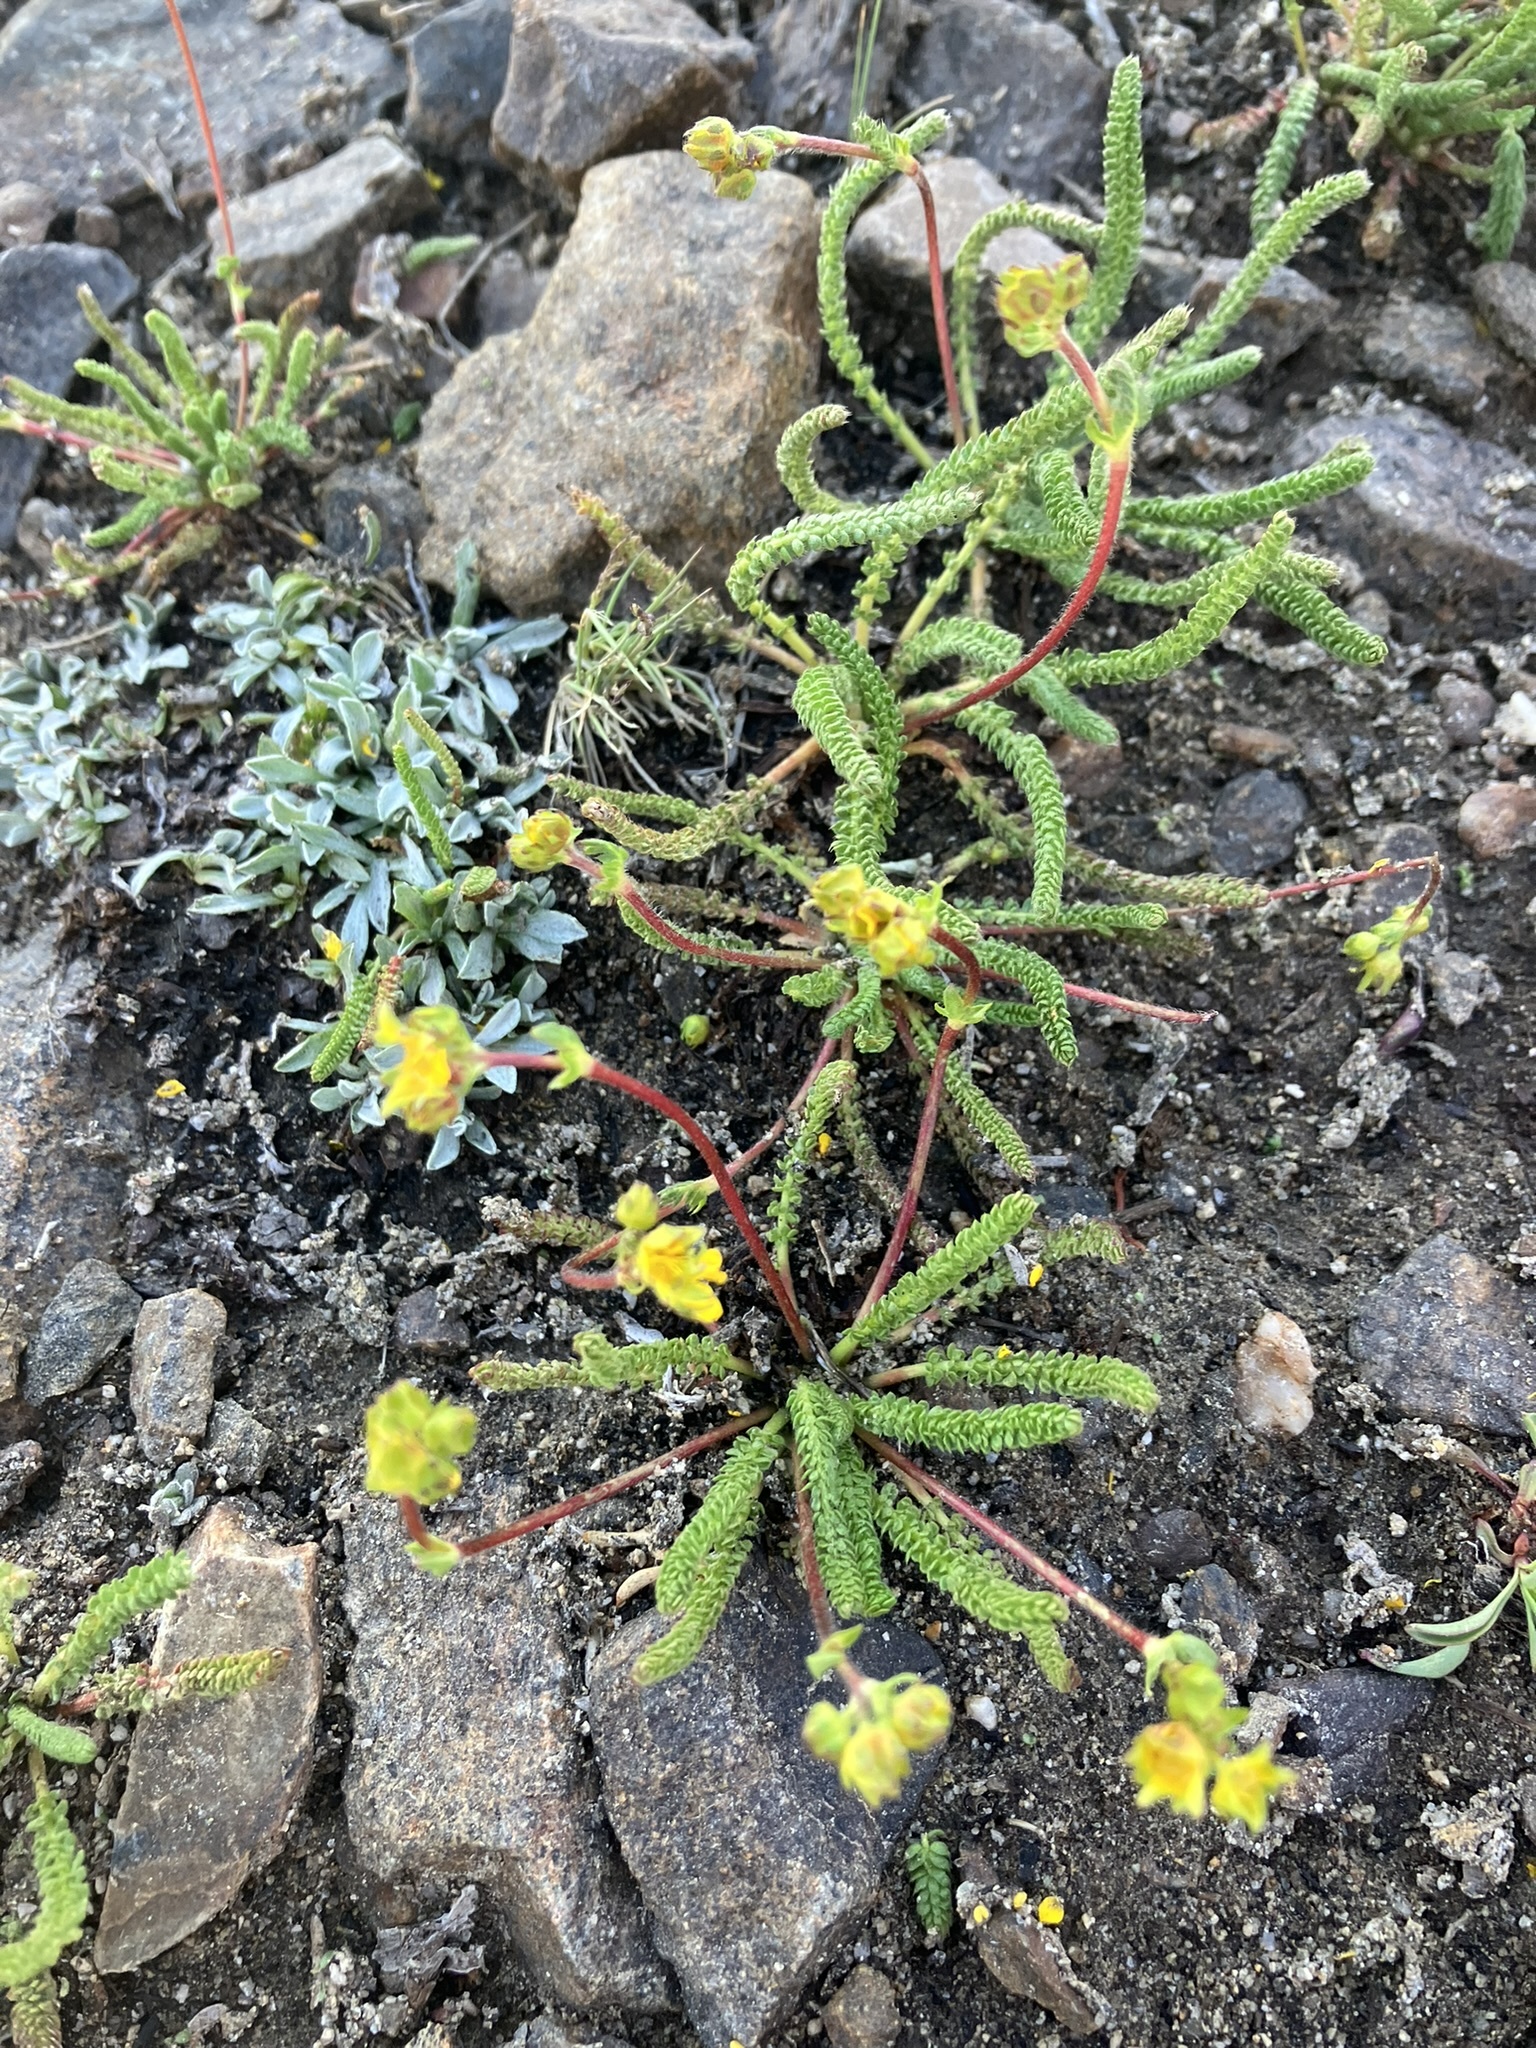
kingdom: Plantae
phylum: Tracheophyta
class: Magnoliopsida
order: Rosales
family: Rosaceae
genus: Potentilla
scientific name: Potentilla lycopodioides
